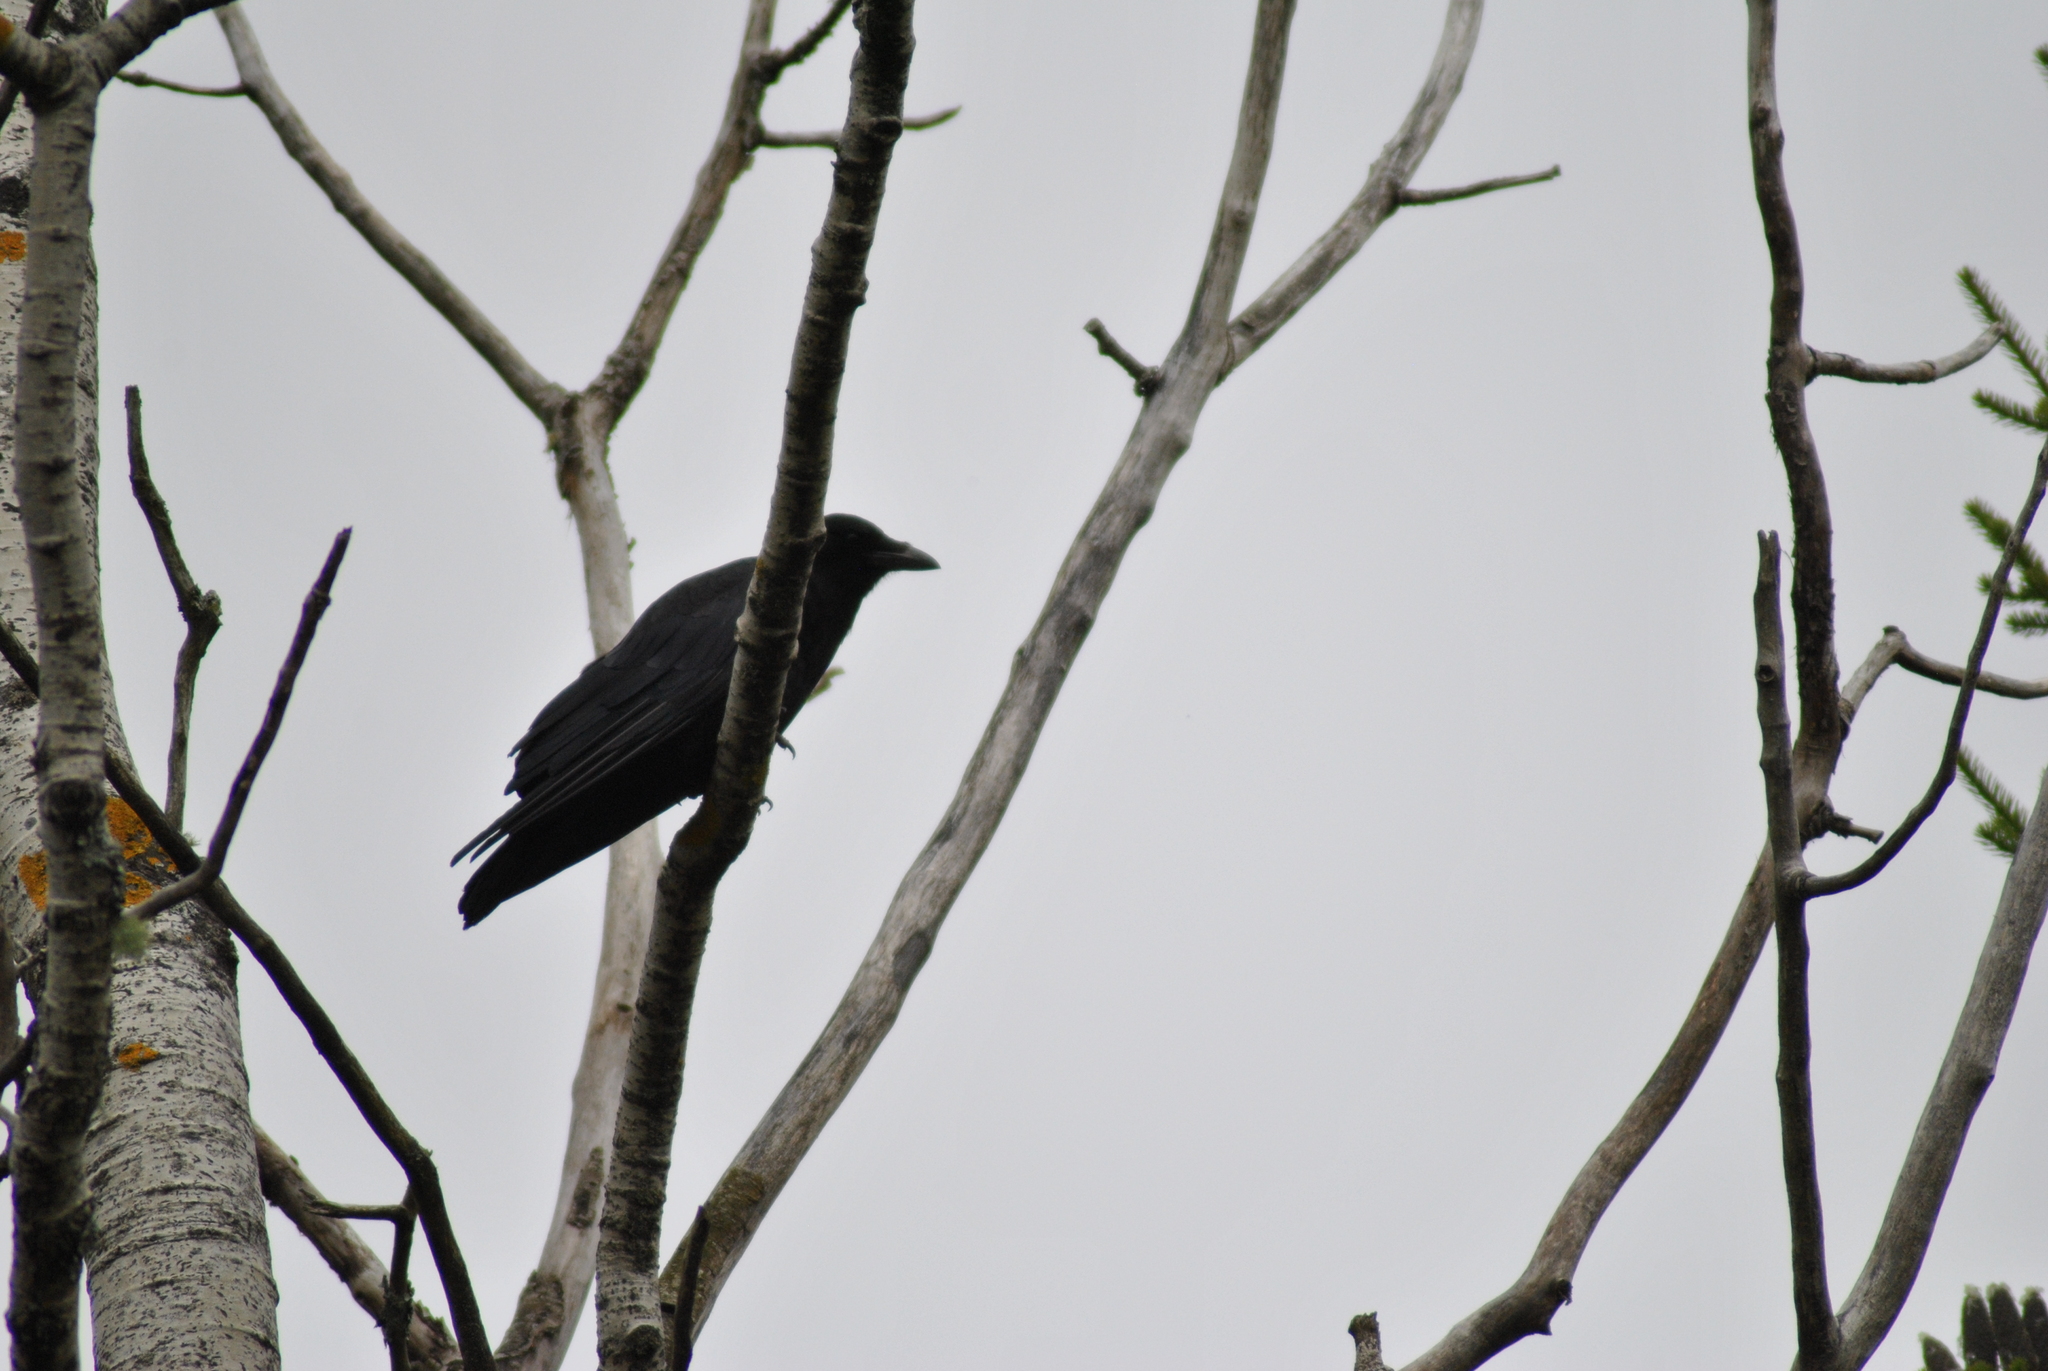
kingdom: Animalia
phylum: Chordata
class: Aves
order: Passeriformes
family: Corvidae
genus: Corvus
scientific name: Corvus brachyrhynchos
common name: American crow
